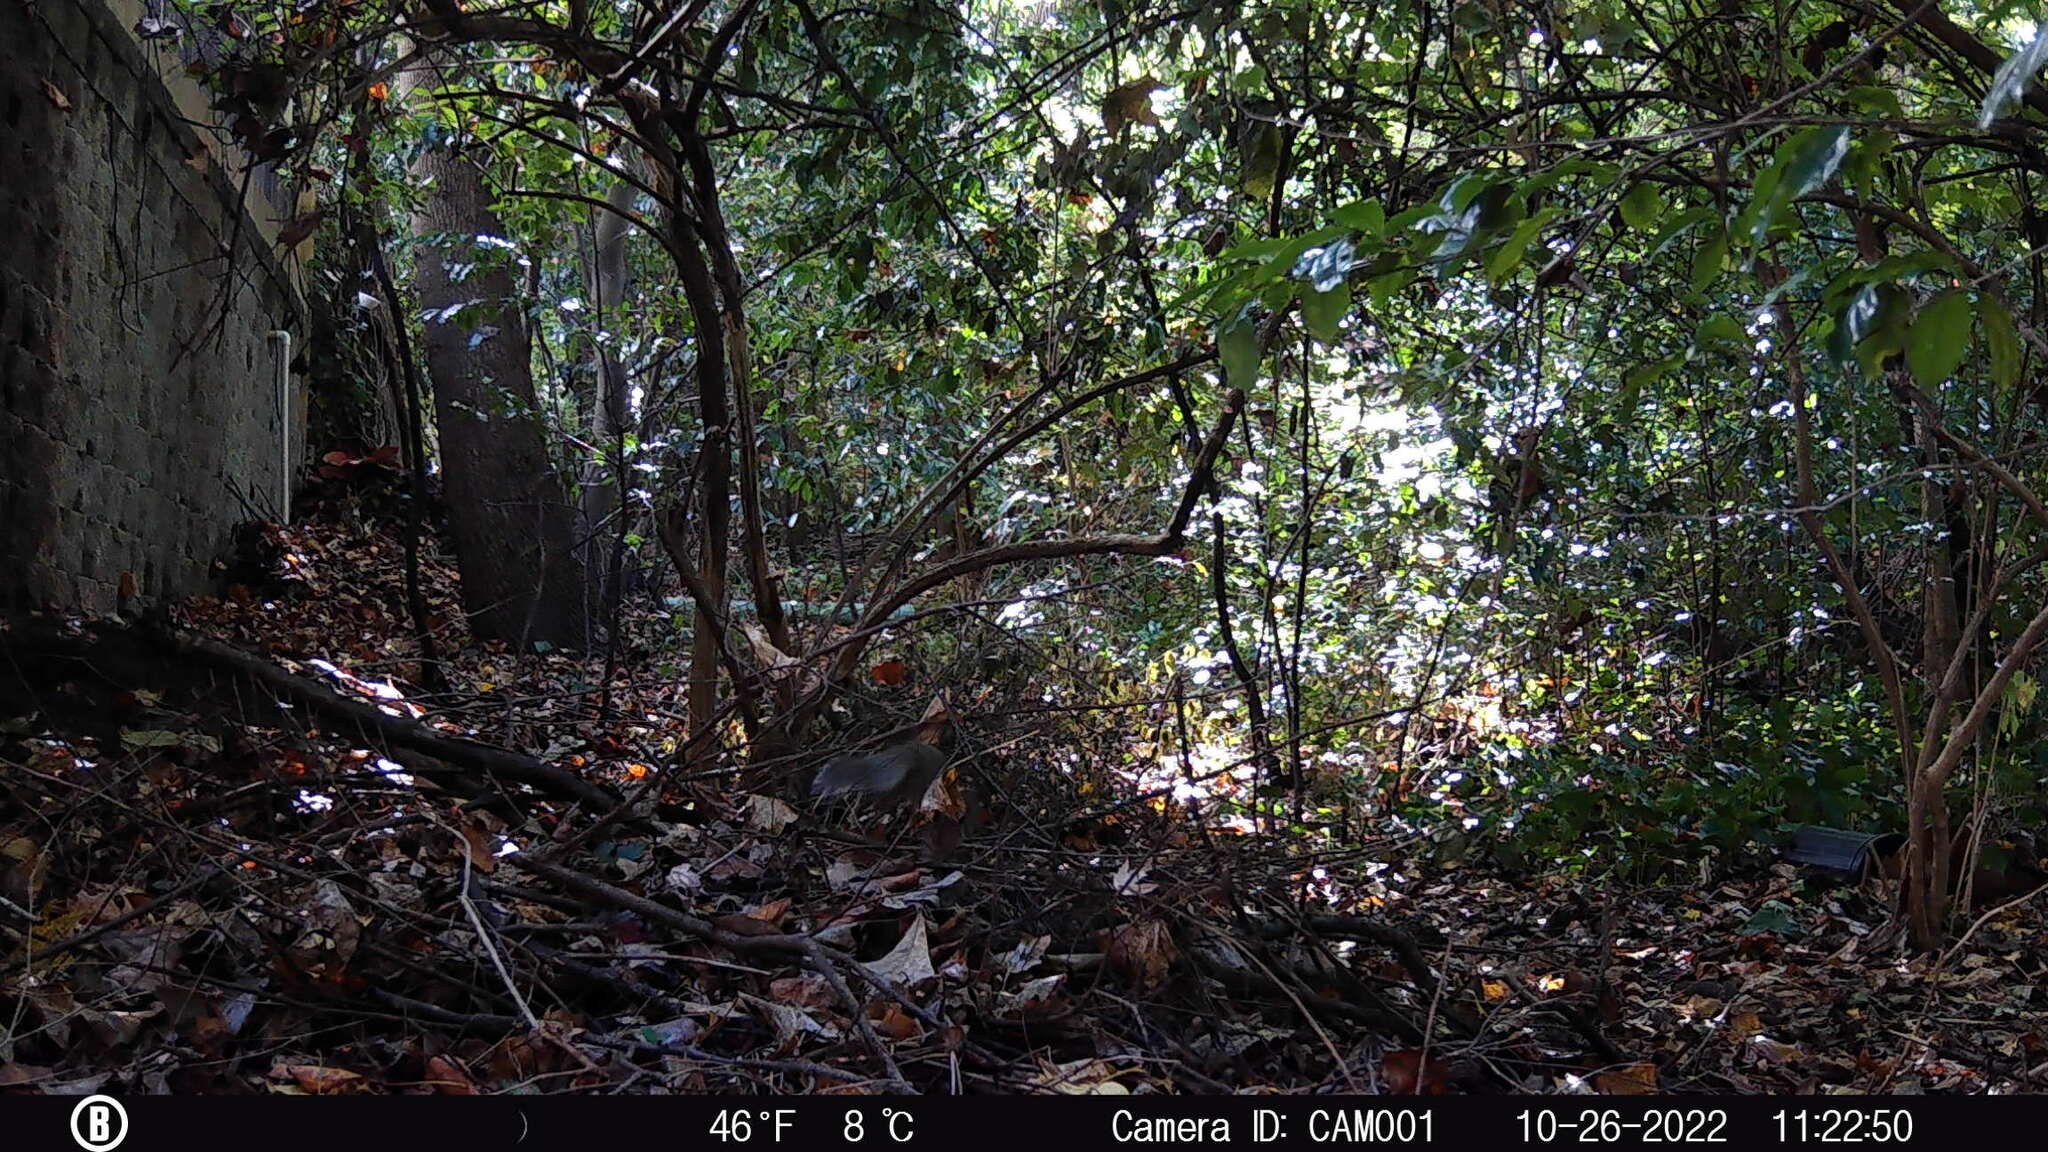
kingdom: Animalia
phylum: Chordata
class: Mammalia
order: Rodentia
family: Sciuridae
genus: Sciurus
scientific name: Sciurus carolinensis
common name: Eastern gray squirrel
